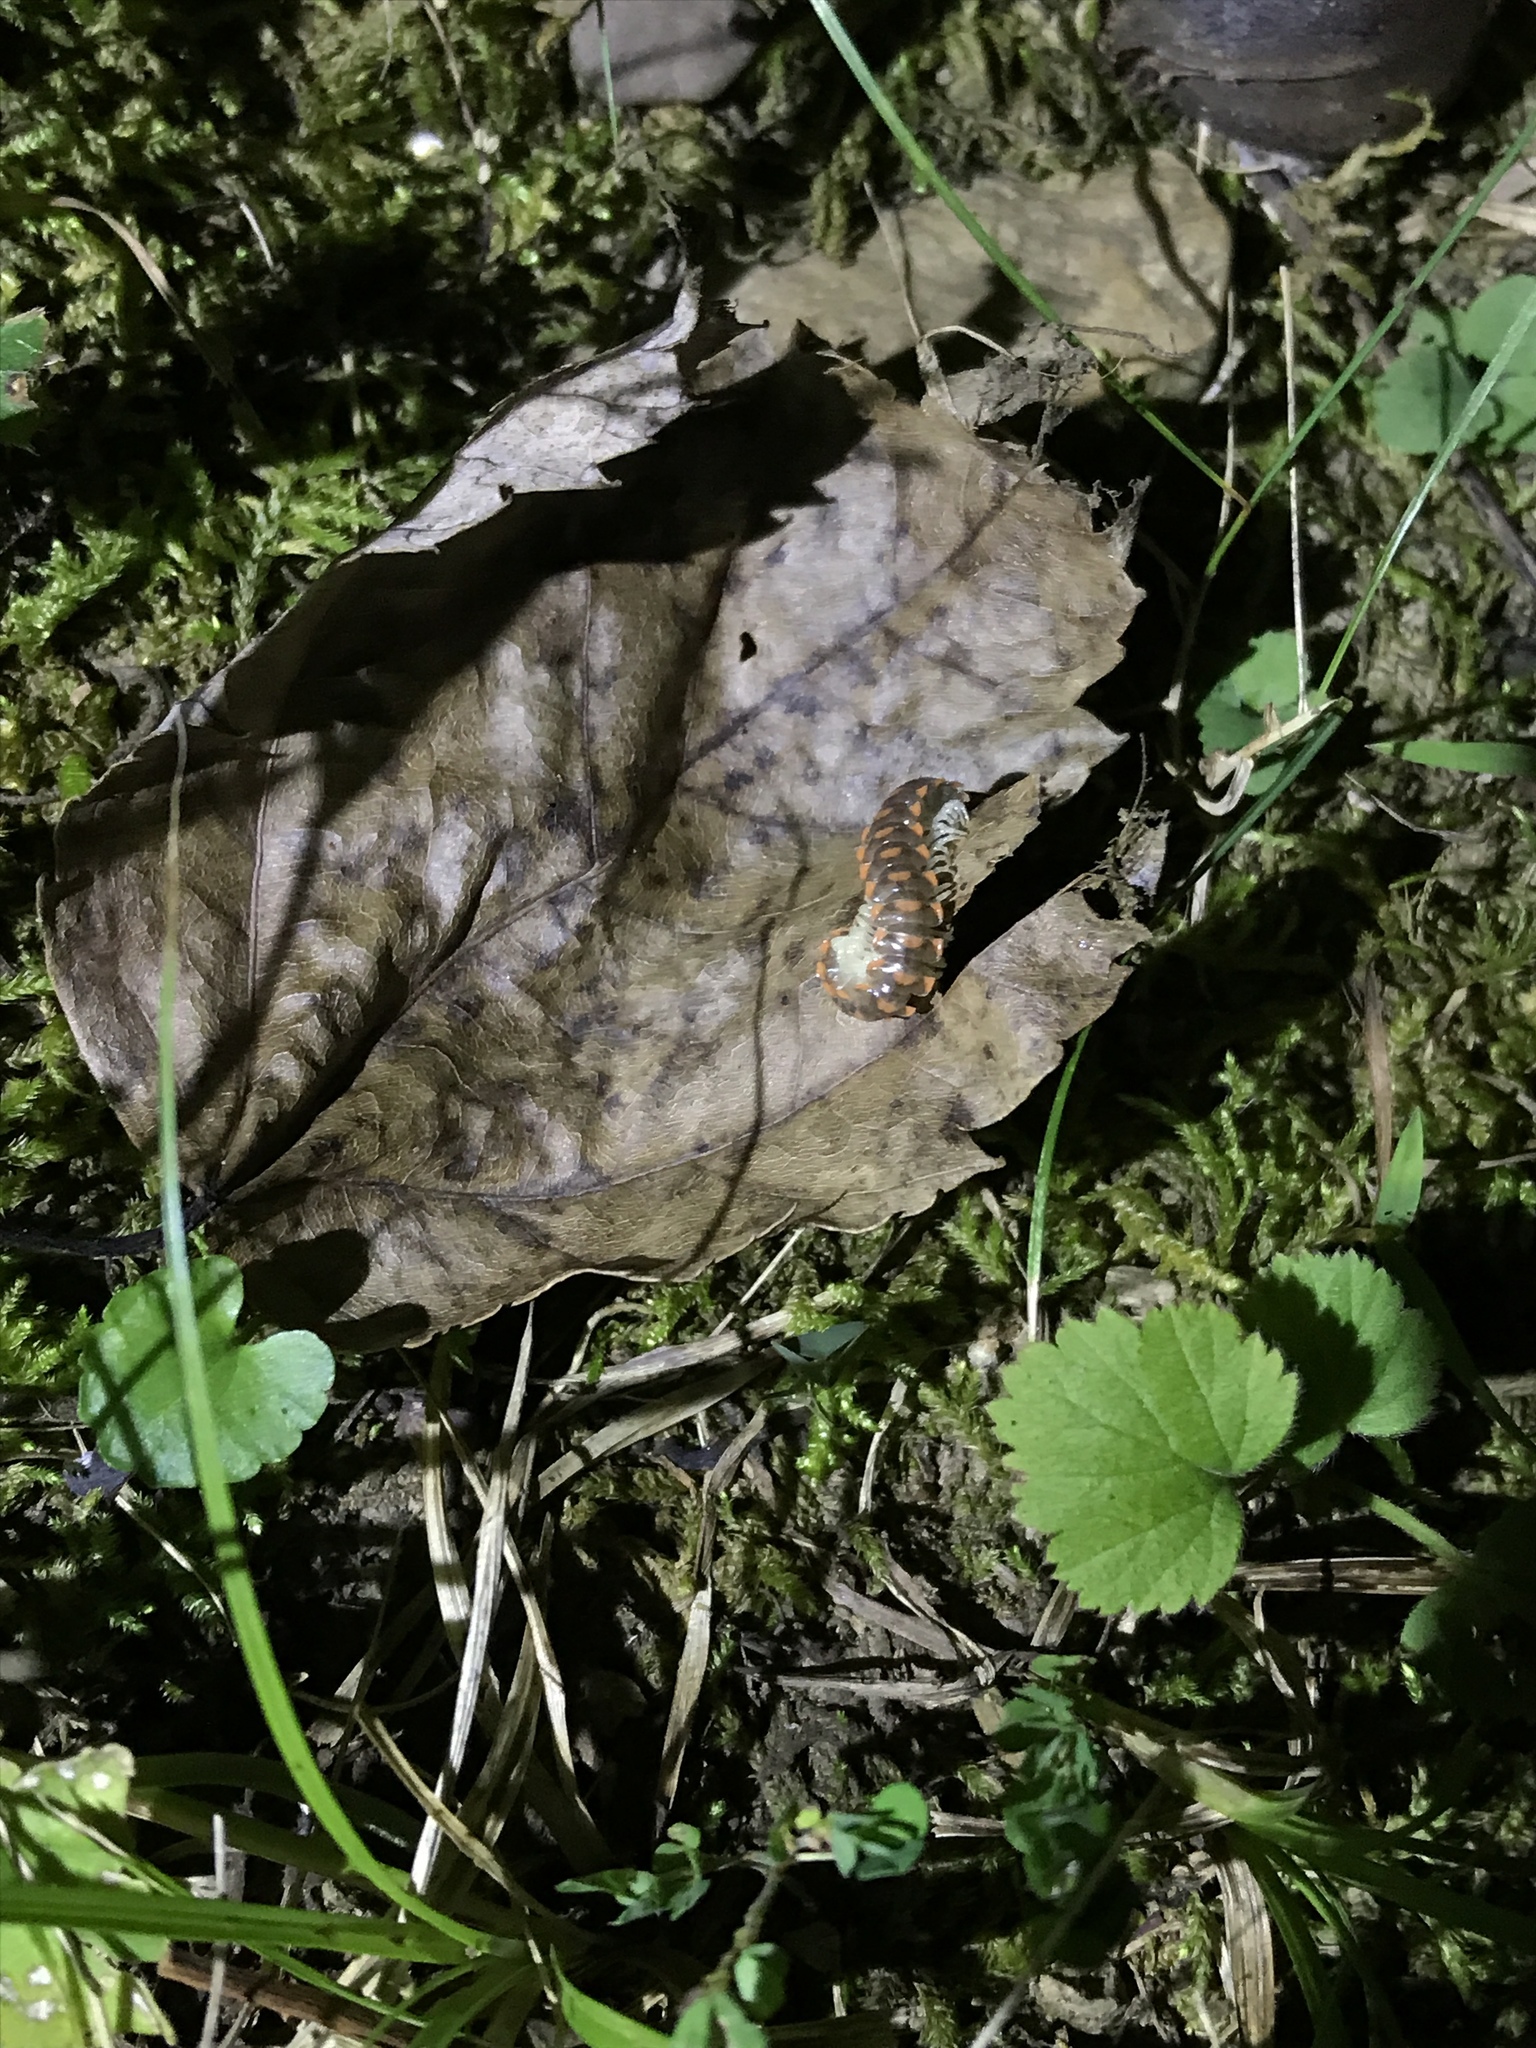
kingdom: Animalia
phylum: Arthropoda
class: Diplopoda
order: Polydesmida
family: Xystodesmidae
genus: Euryurus
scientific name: Euryurus leachii
